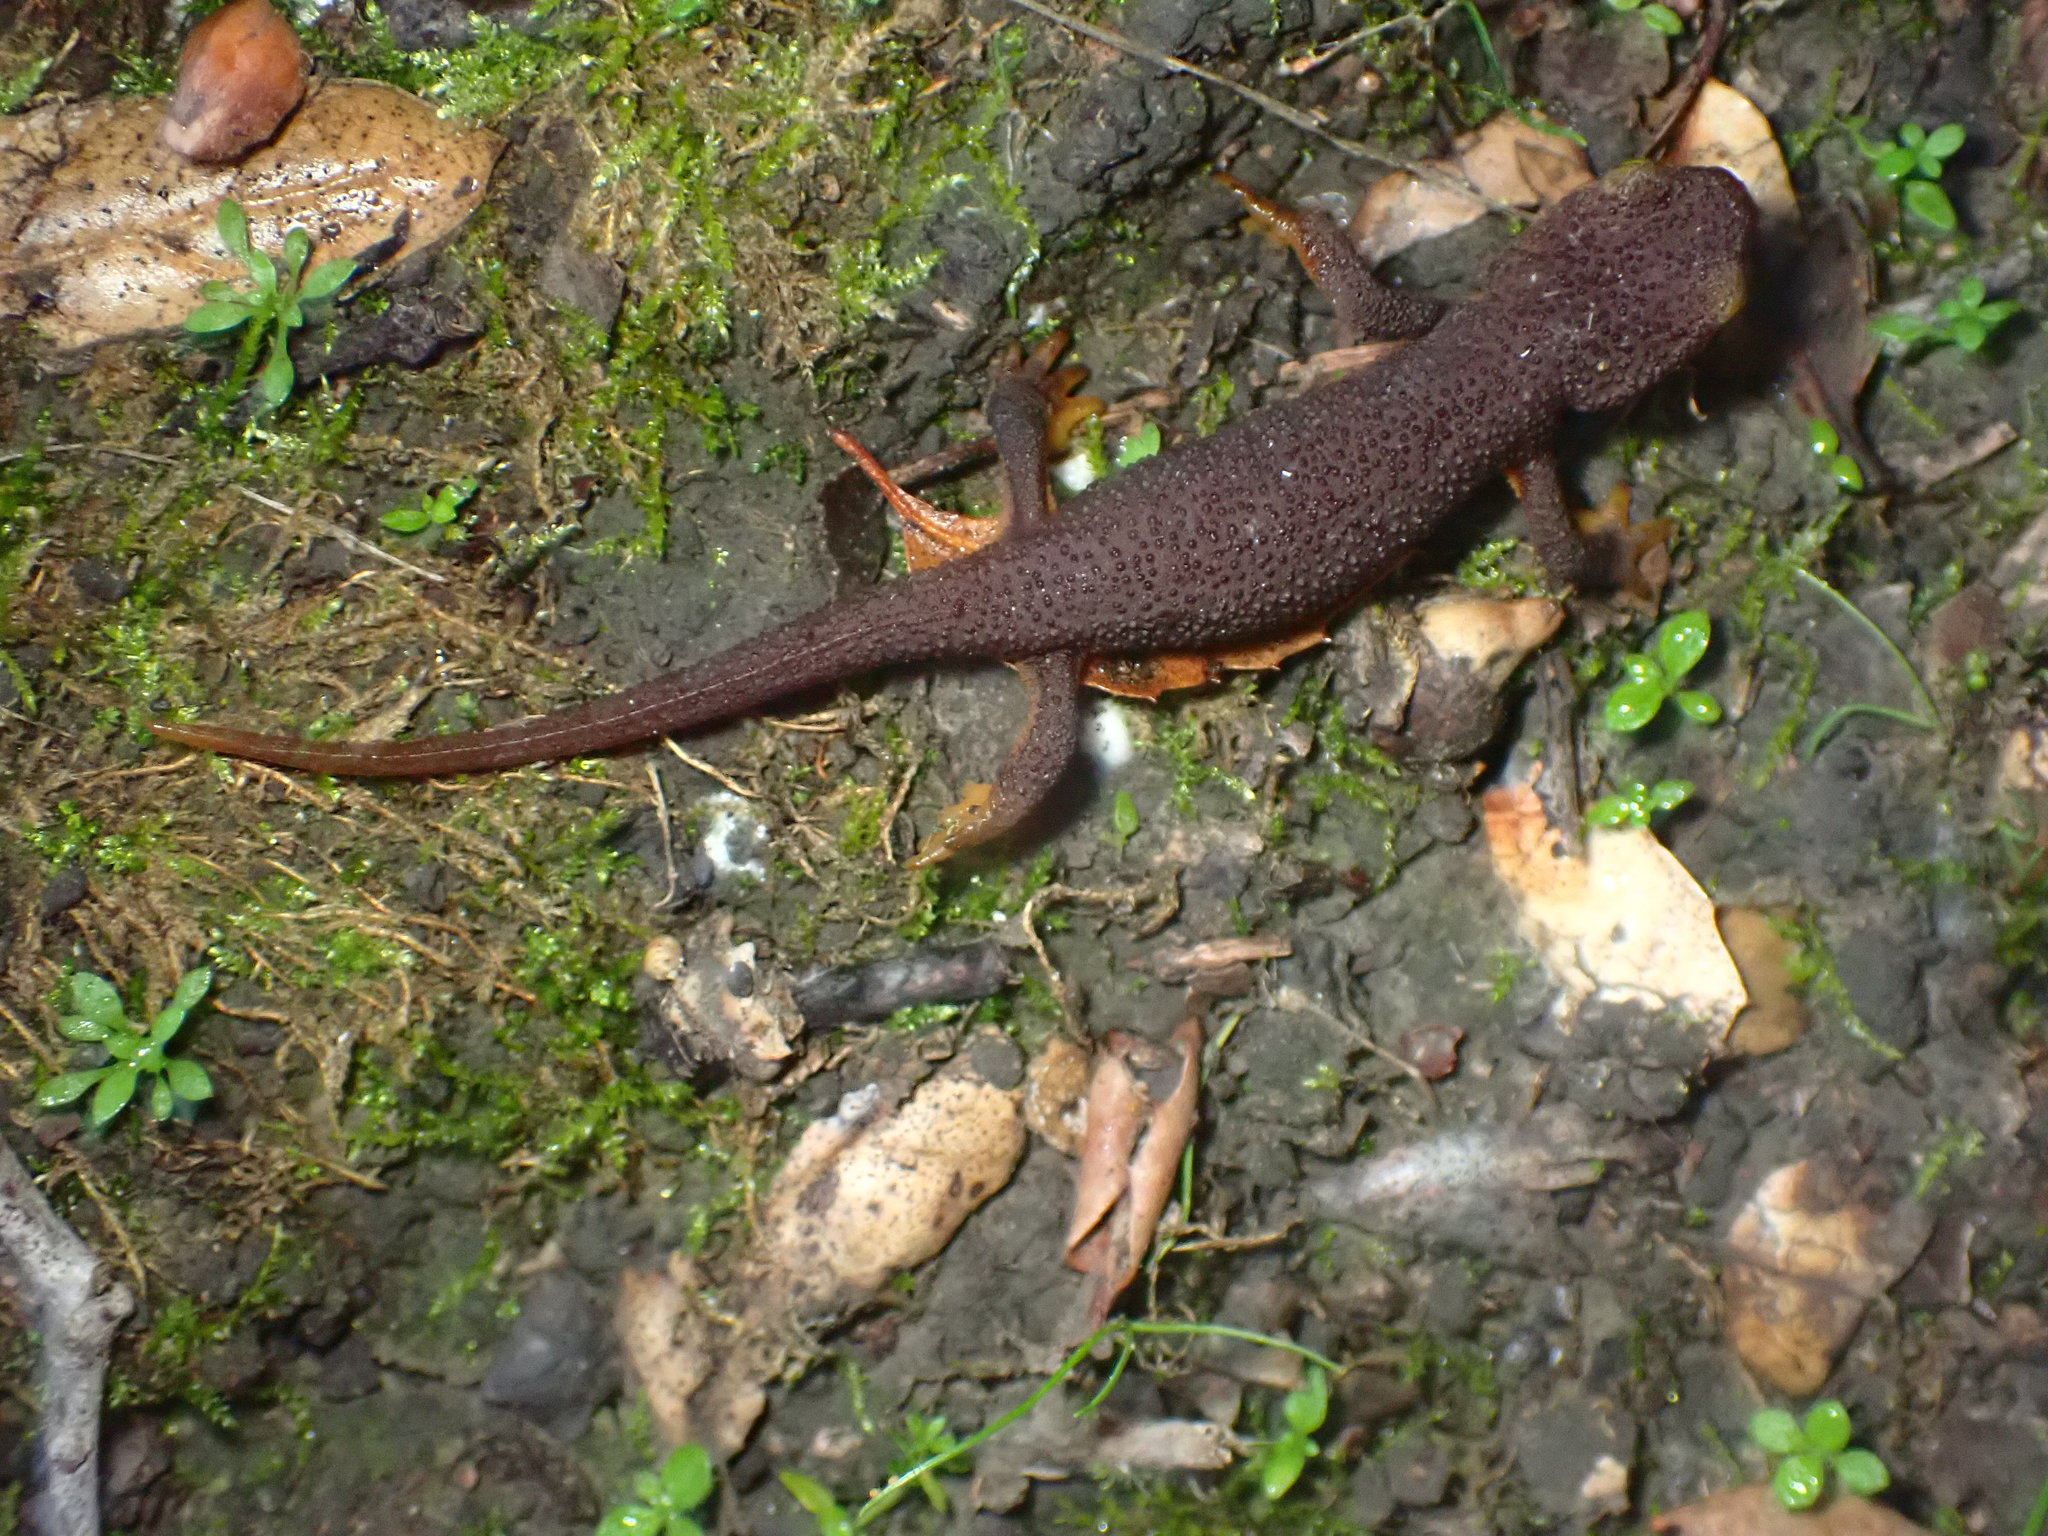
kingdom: Animalia
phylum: Chordata
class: Amphibia
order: Caudata
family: Salamandridae
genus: Taricha
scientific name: Taricha torosa
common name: California newt
